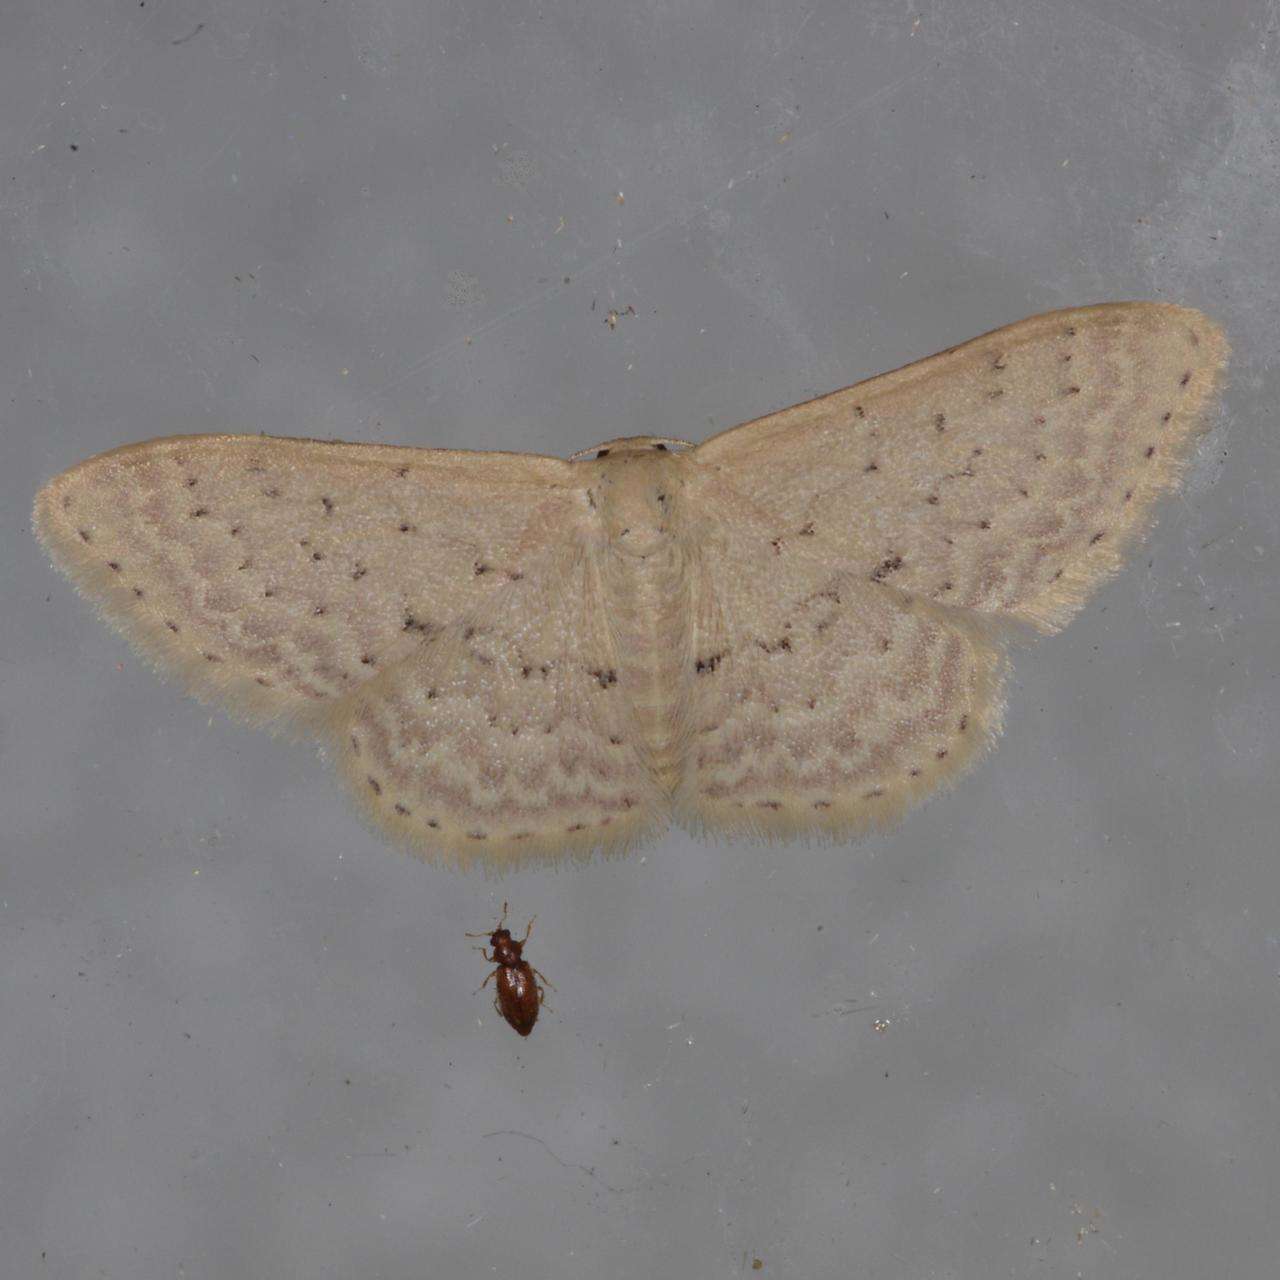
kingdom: Animalia
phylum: Arthropoda
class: Insecta
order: Lepidoptera
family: Geometridae
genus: Idaea
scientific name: Idaea philocosma
